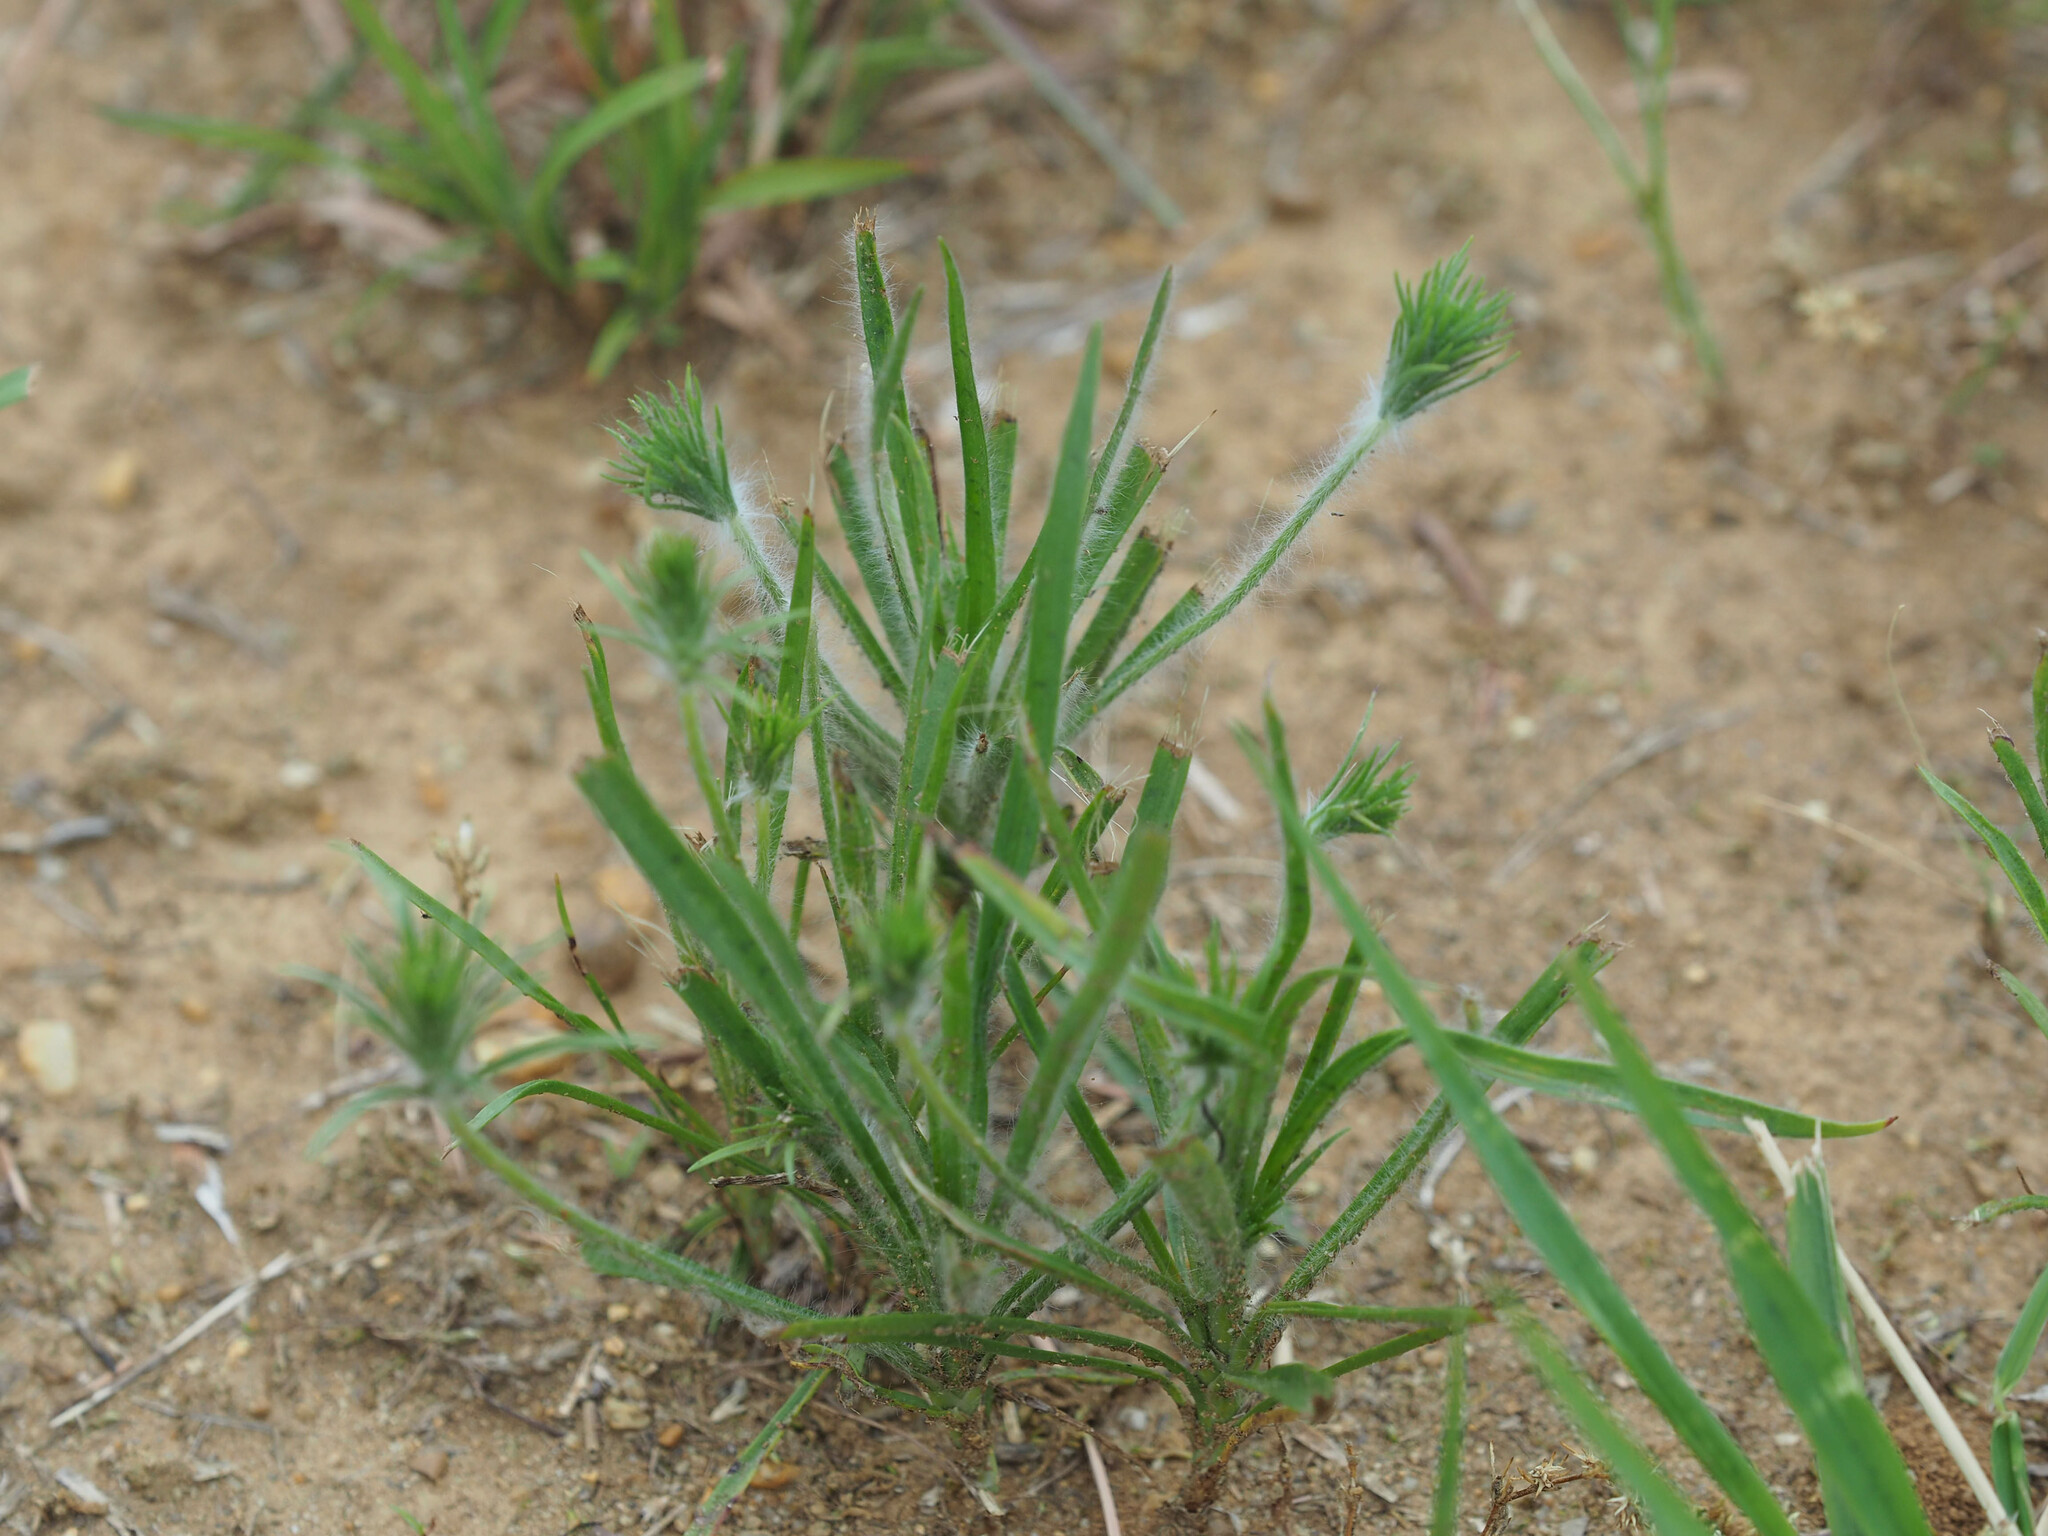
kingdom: Plantae
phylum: Tracheophyta
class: Magnoliopsida
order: Lamiales
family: Plantaginaceae
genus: Plantago
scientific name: Plantago aristata
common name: Bracted plantain
